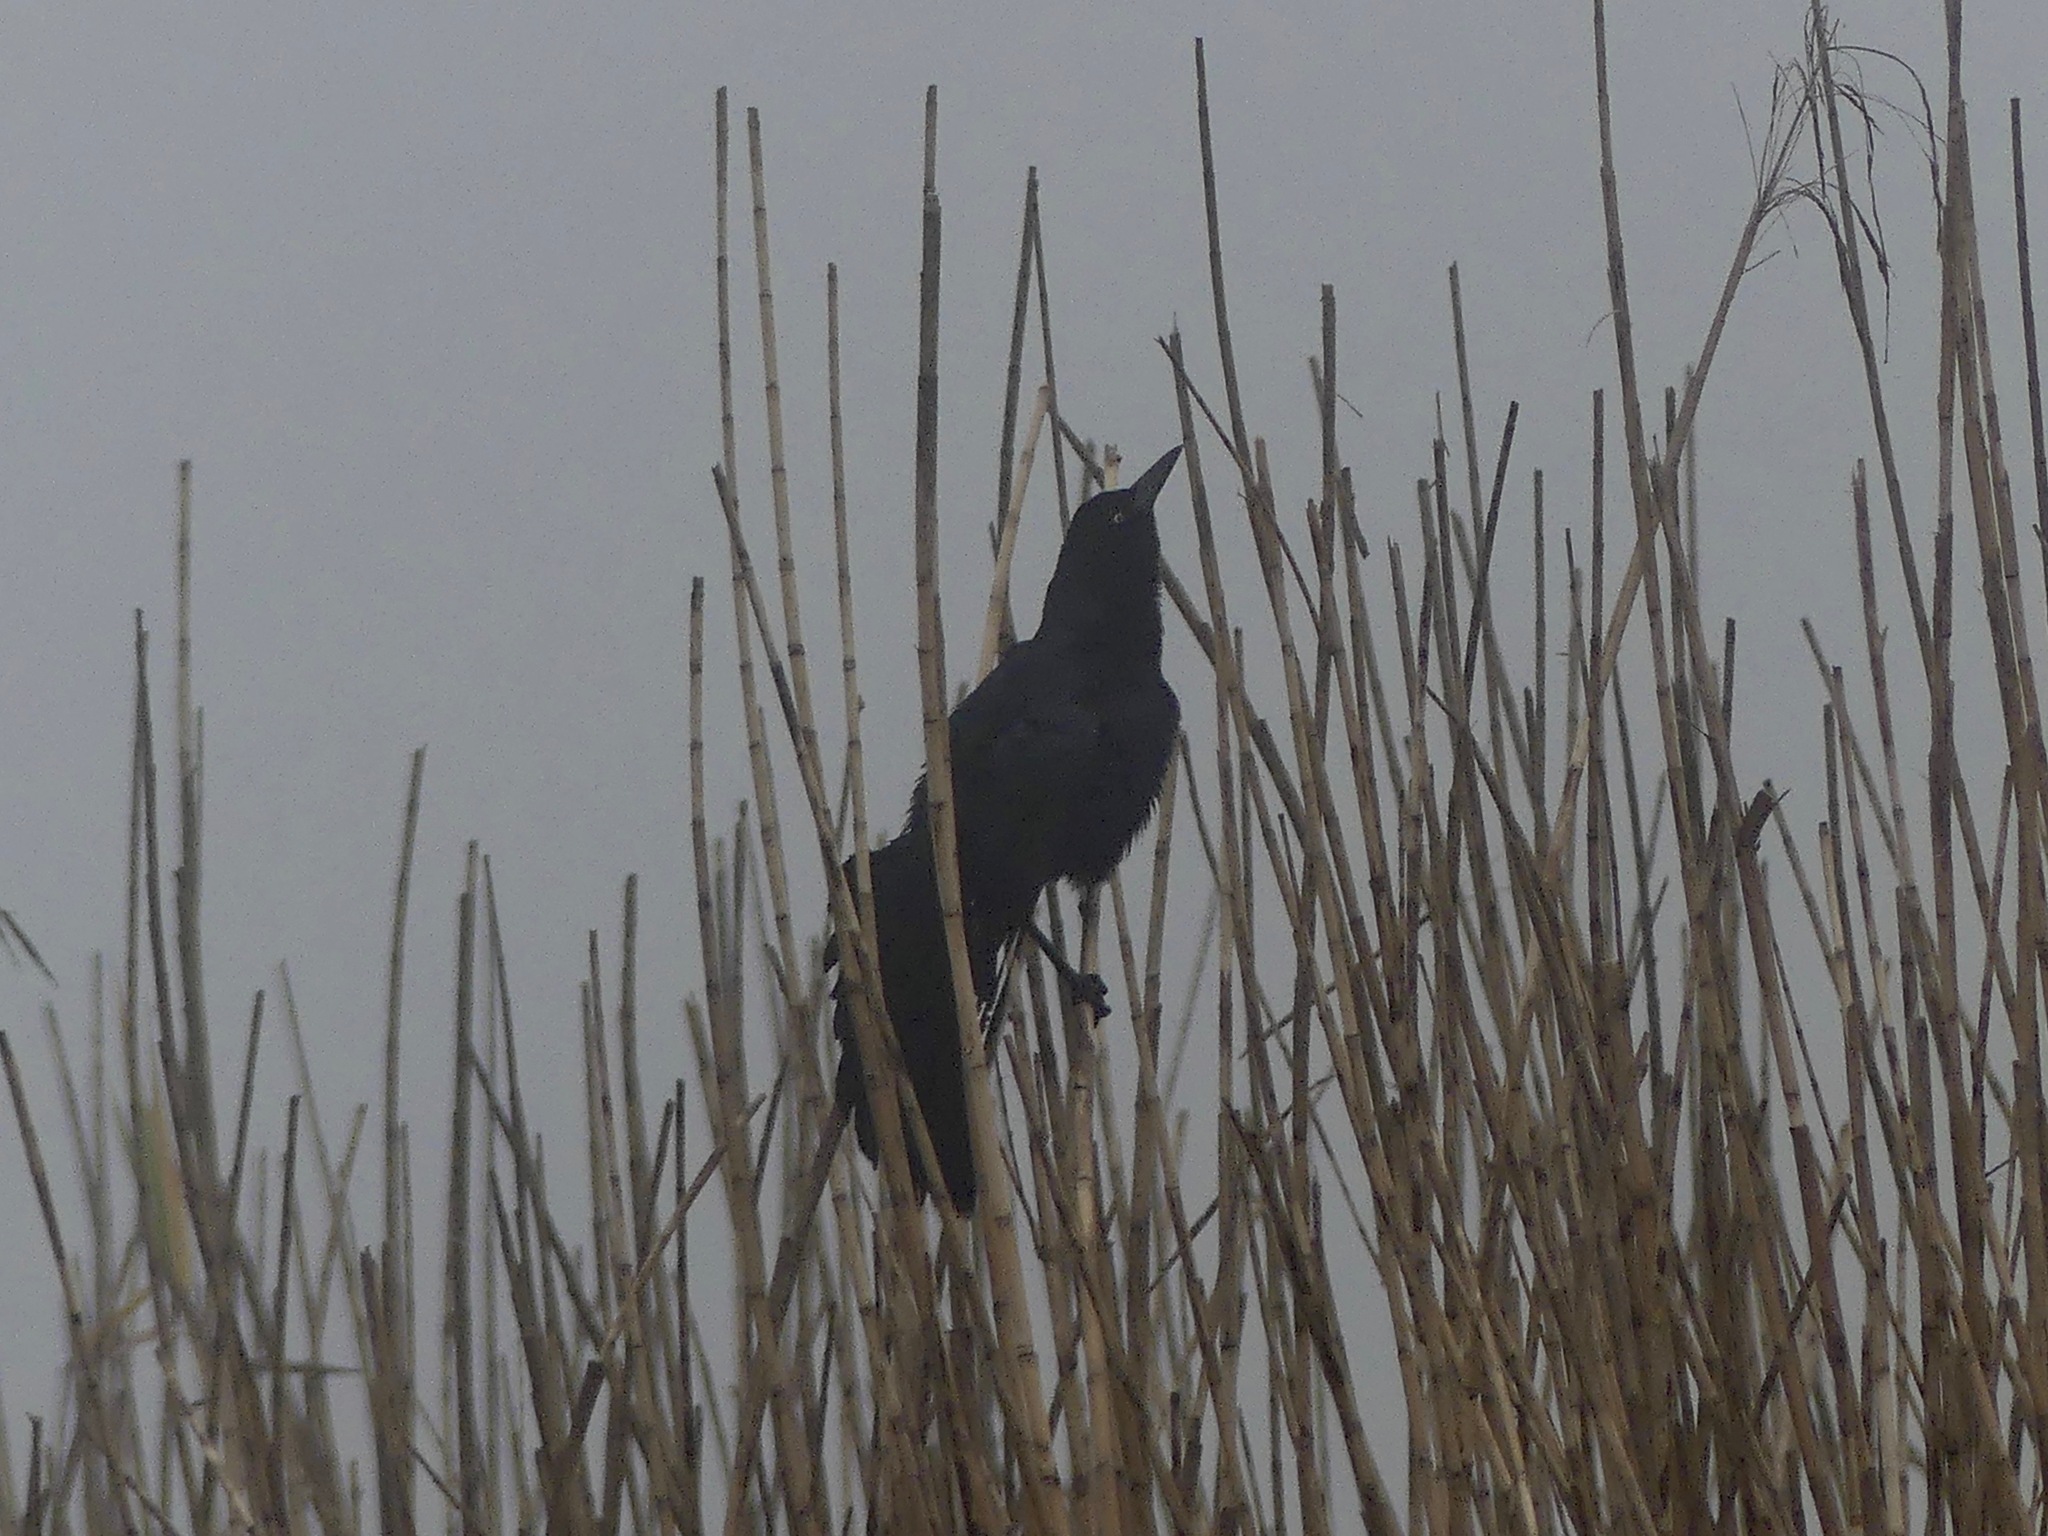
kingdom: Animalia
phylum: Chordata
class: Aves
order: Passeriformes
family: Icteridae
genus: Quiscalus
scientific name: Quiscalus
